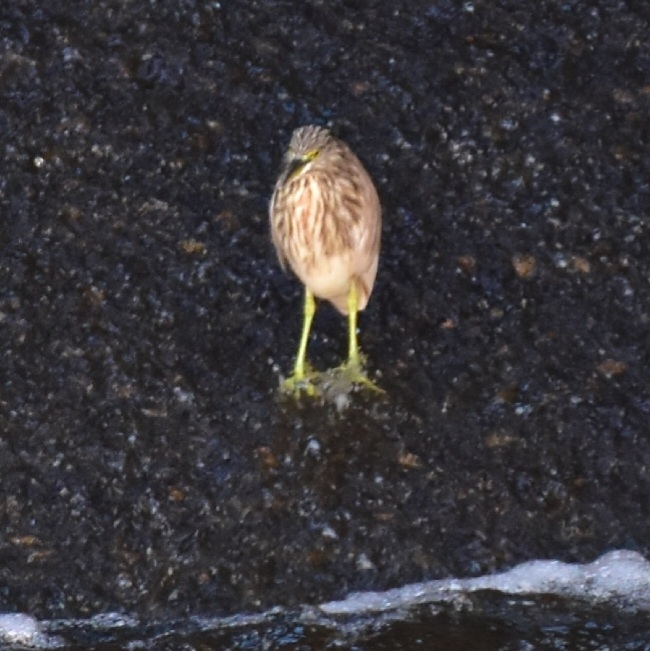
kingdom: Animalia
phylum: Chordata
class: Aves
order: Pelecaniformes
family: Ardeidae
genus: Ardeola
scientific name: Ardeola grayii
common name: Indian pond heron
